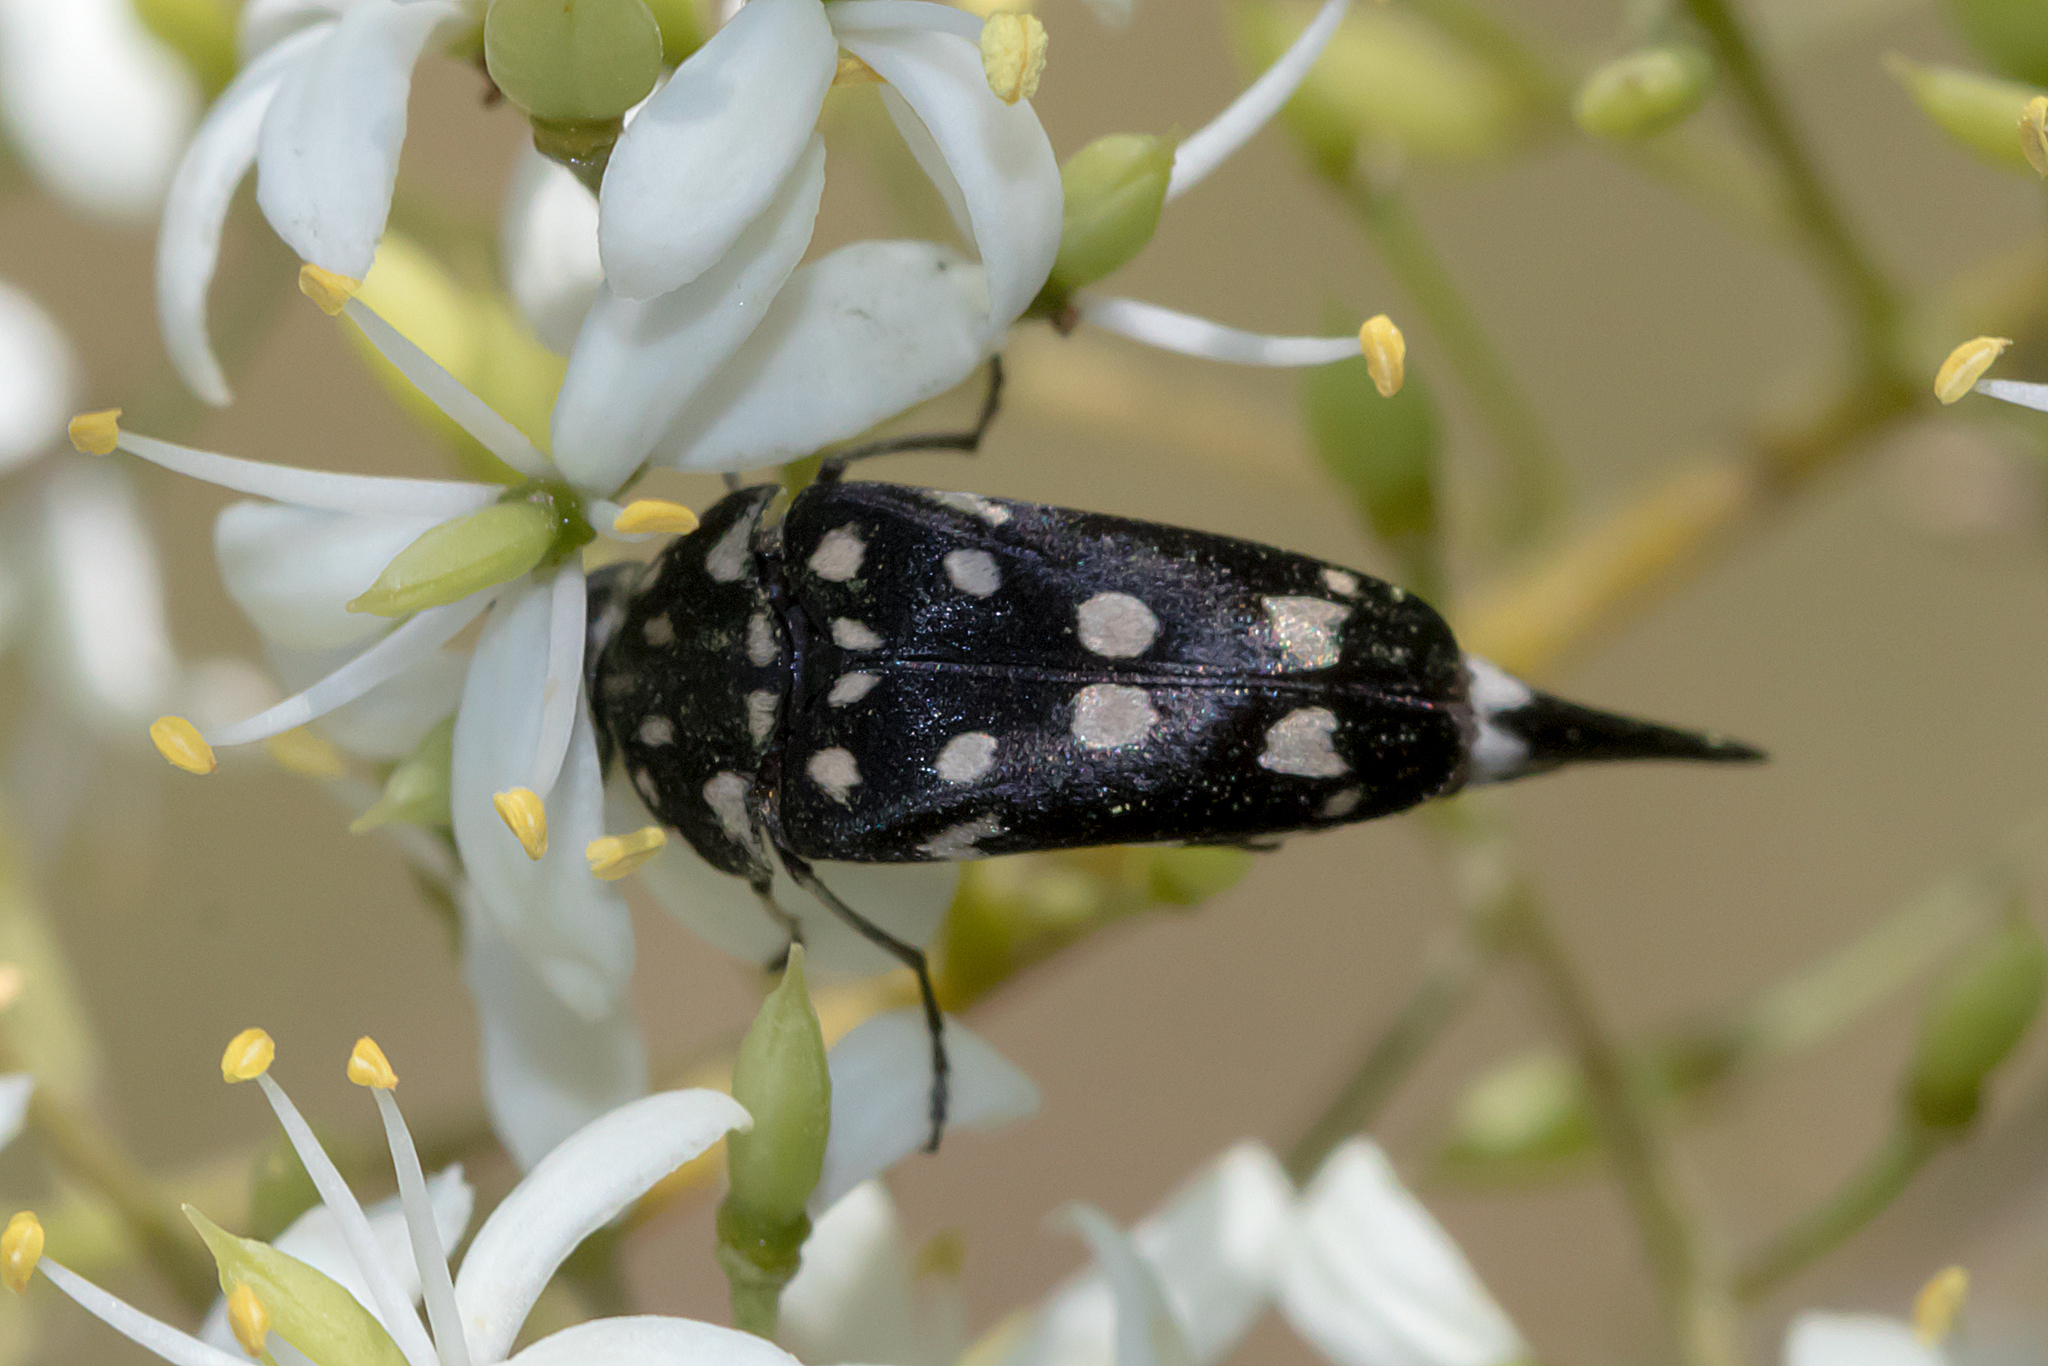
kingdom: Animalia
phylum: Arthropoda
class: Insecta
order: Coleoptera
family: Mordellidae
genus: Hoshihananomia
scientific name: Hoshihananomia
